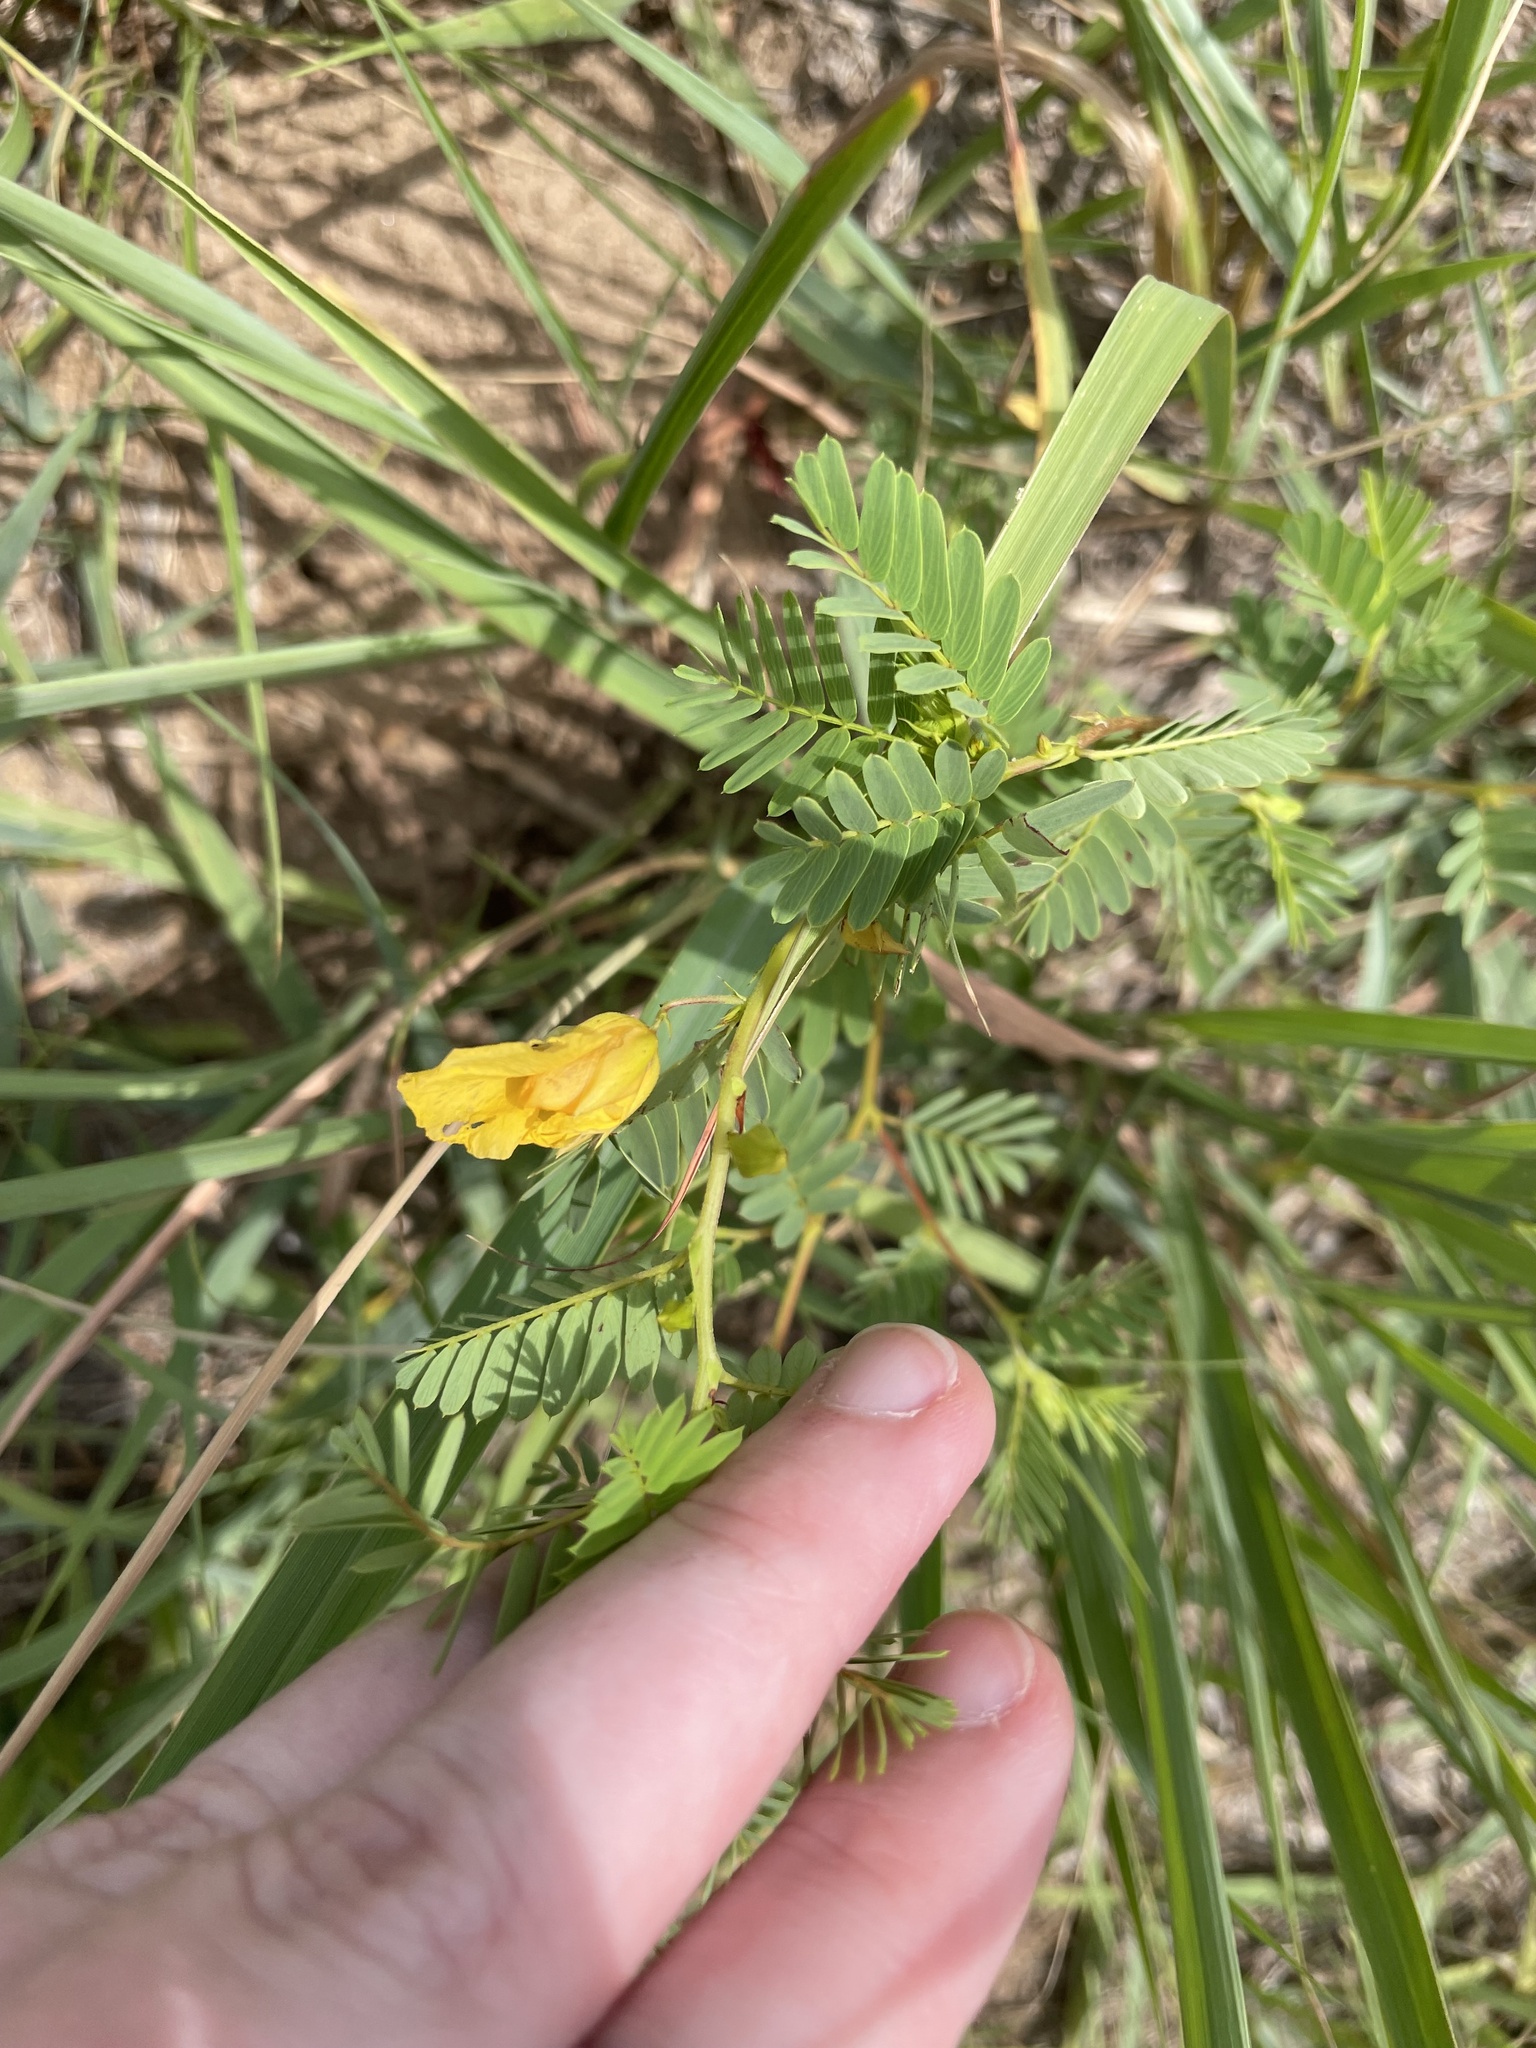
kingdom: Plantae
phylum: Tracheophyta
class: Magnoliopsida
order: Fabales
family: Fabaceae
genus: Chamaecrista
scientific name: Chamaecrista fasciculata
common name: Golden cassia
